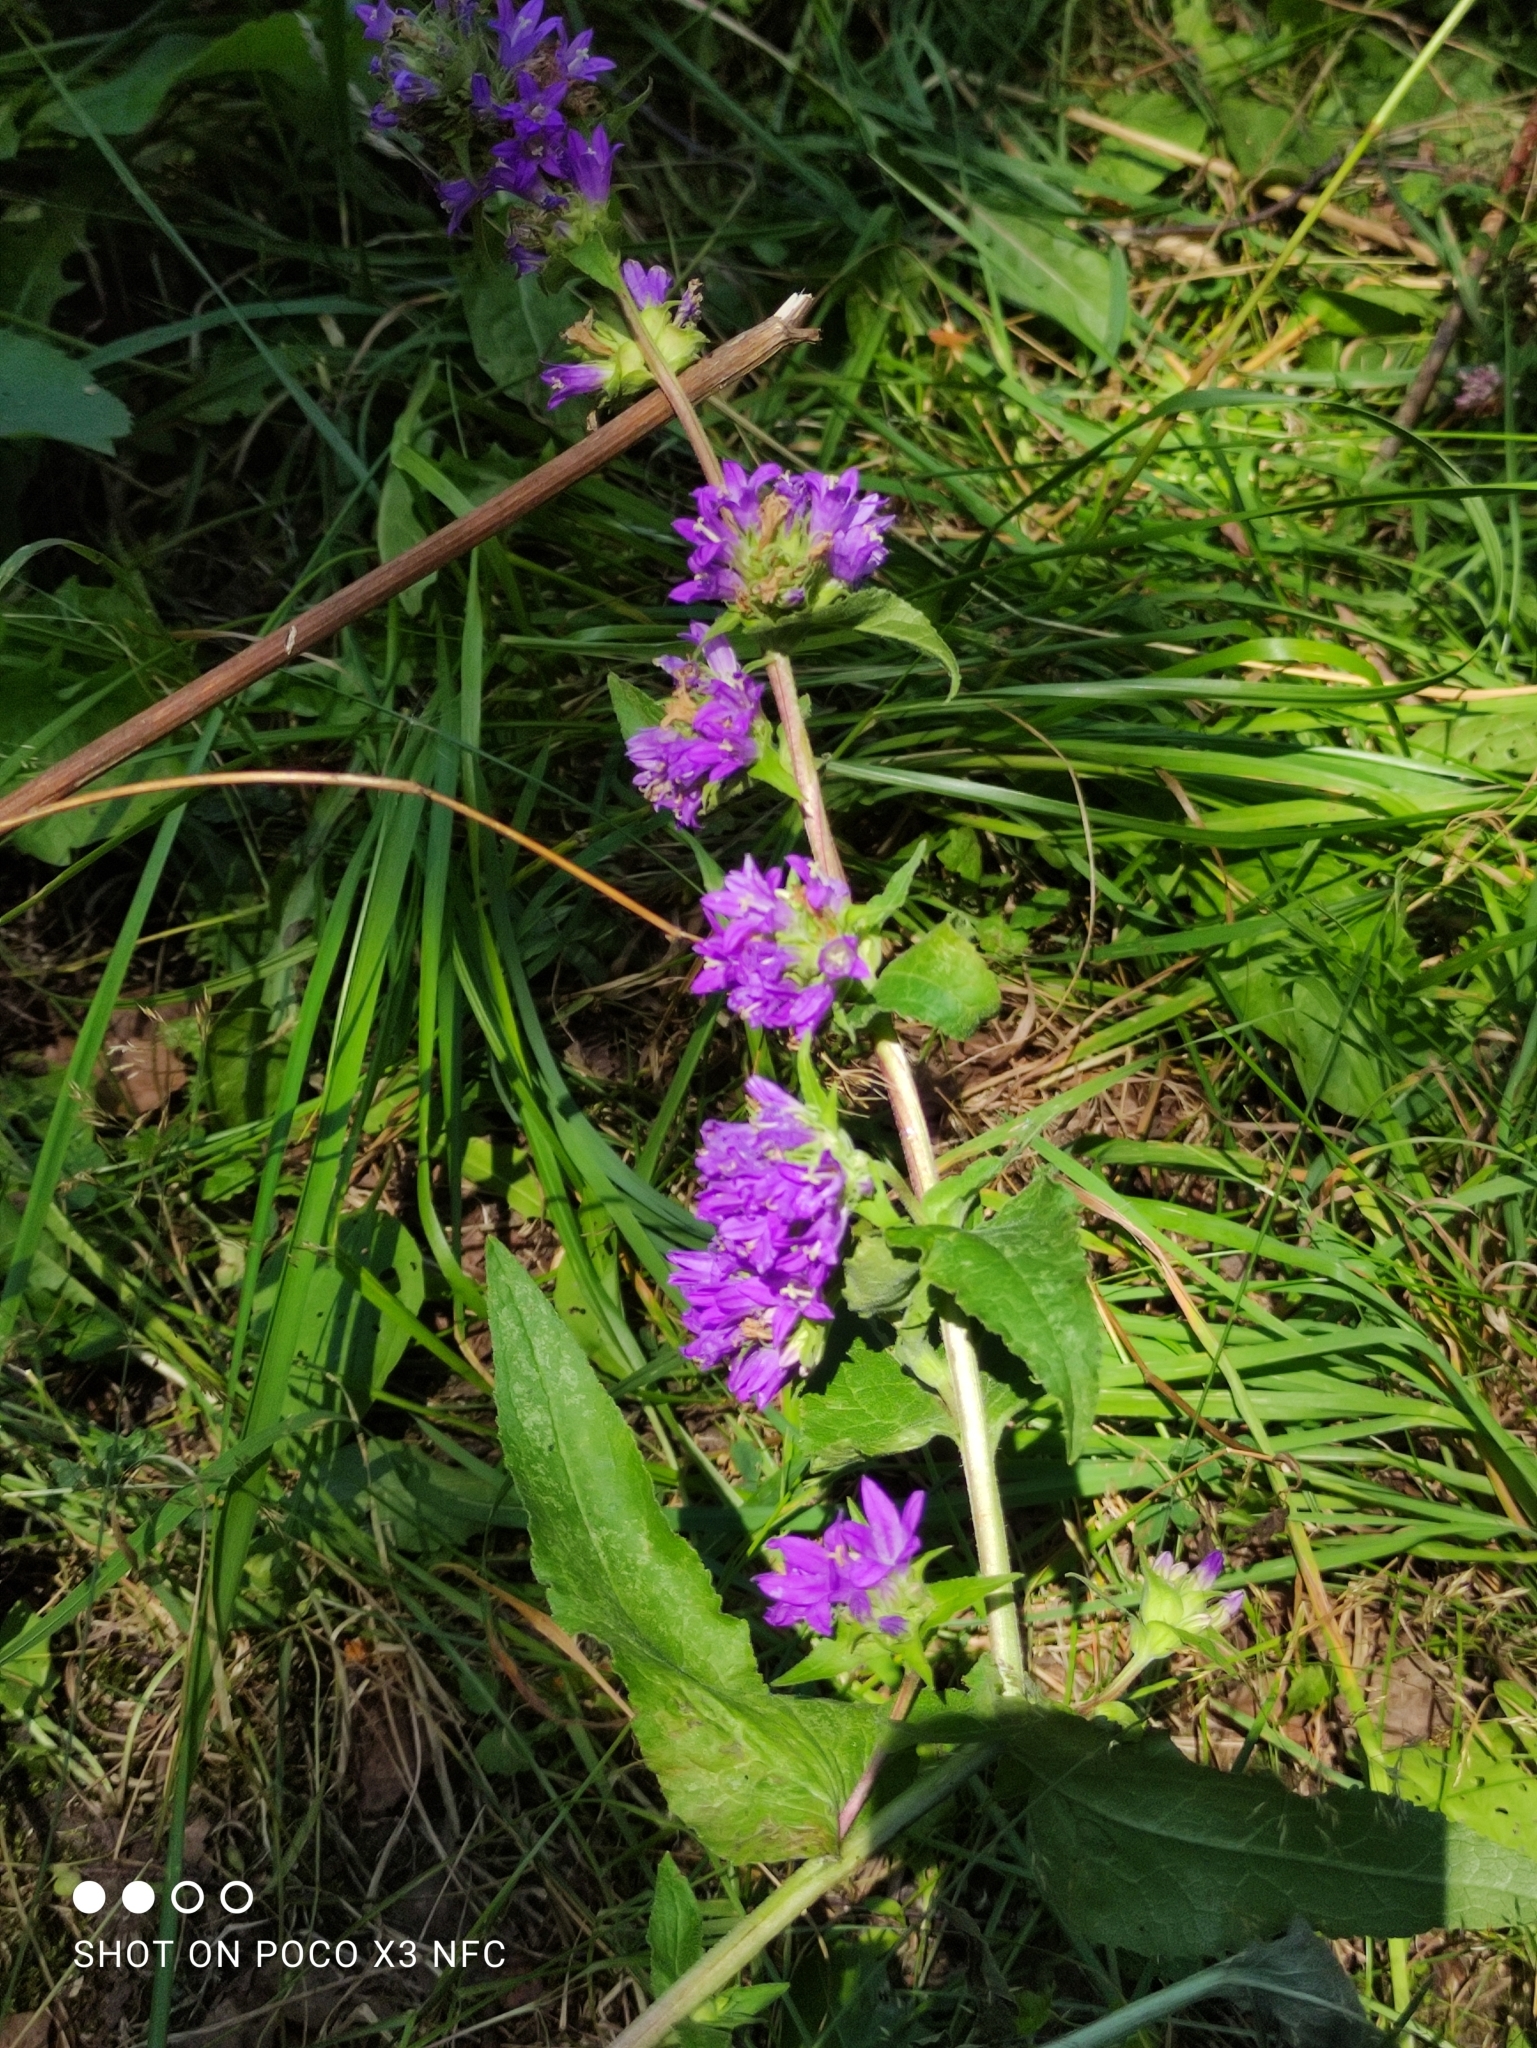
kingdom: Plantae
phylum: Tracheophyta
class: Magnoliopsida
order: Asterales
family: Campanulaceae
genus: Campanula
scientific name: Campanula glomerata
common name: Clustered bellflower
